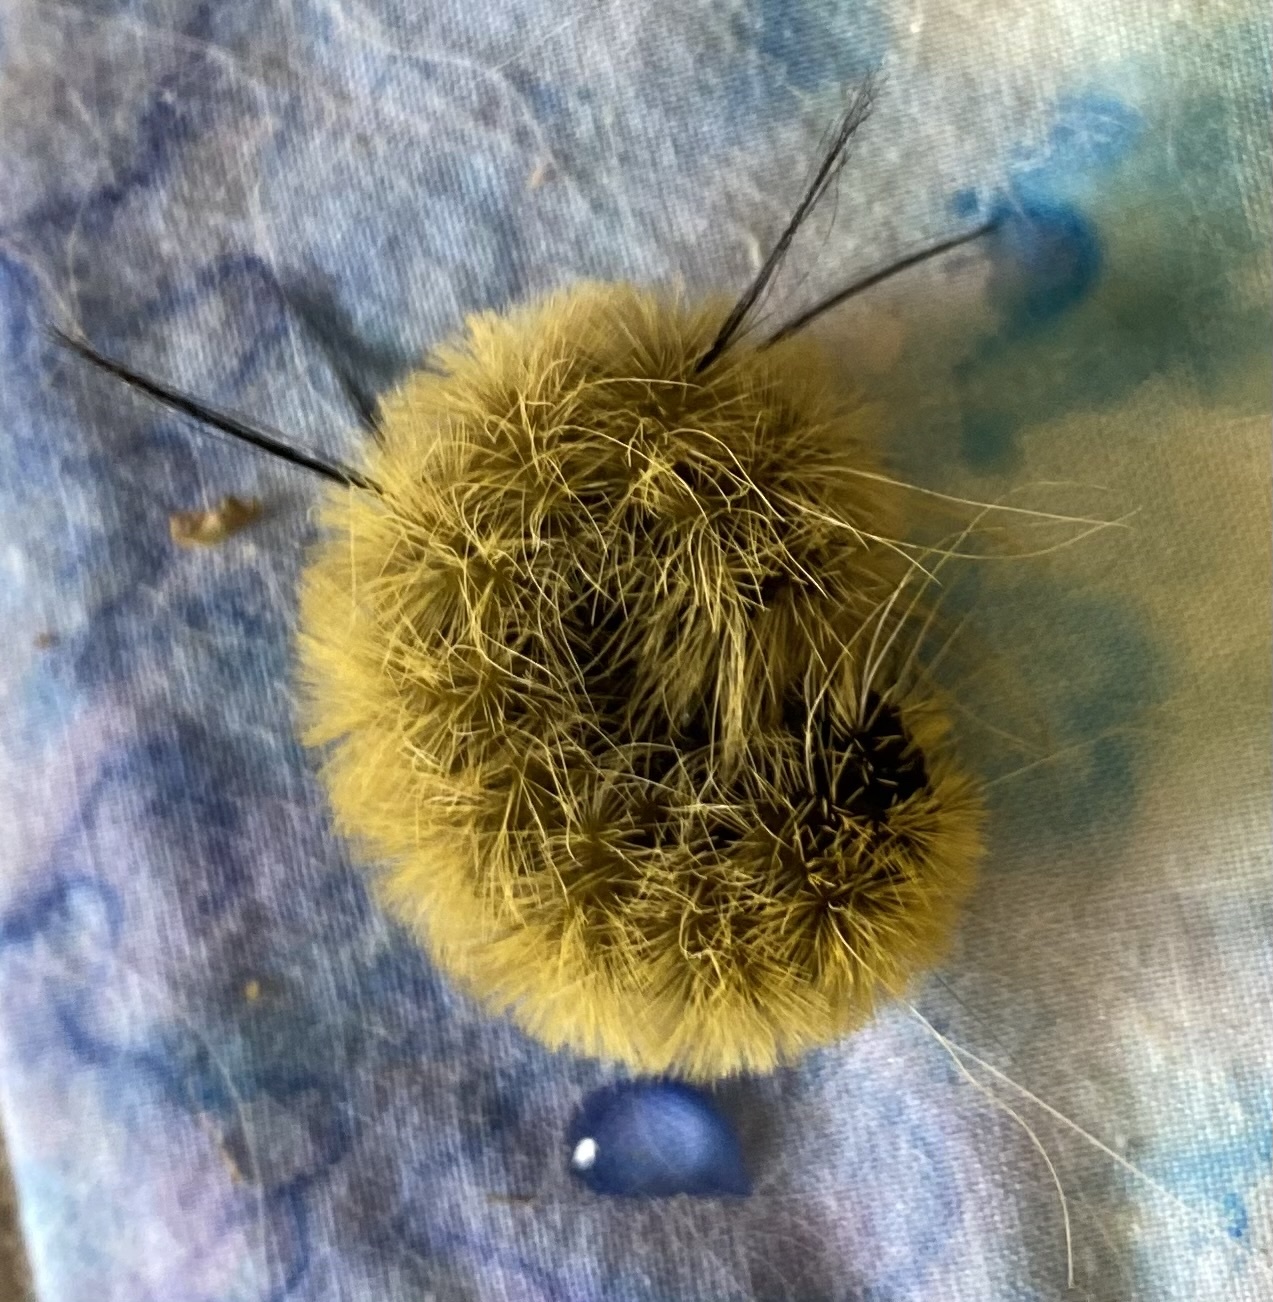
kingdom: Animalia
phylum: Arthropoda
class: Insecta
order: Lepidoptera
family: Noctuidae
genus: Acronicta
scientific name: Acronicta americana
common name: American dagger
